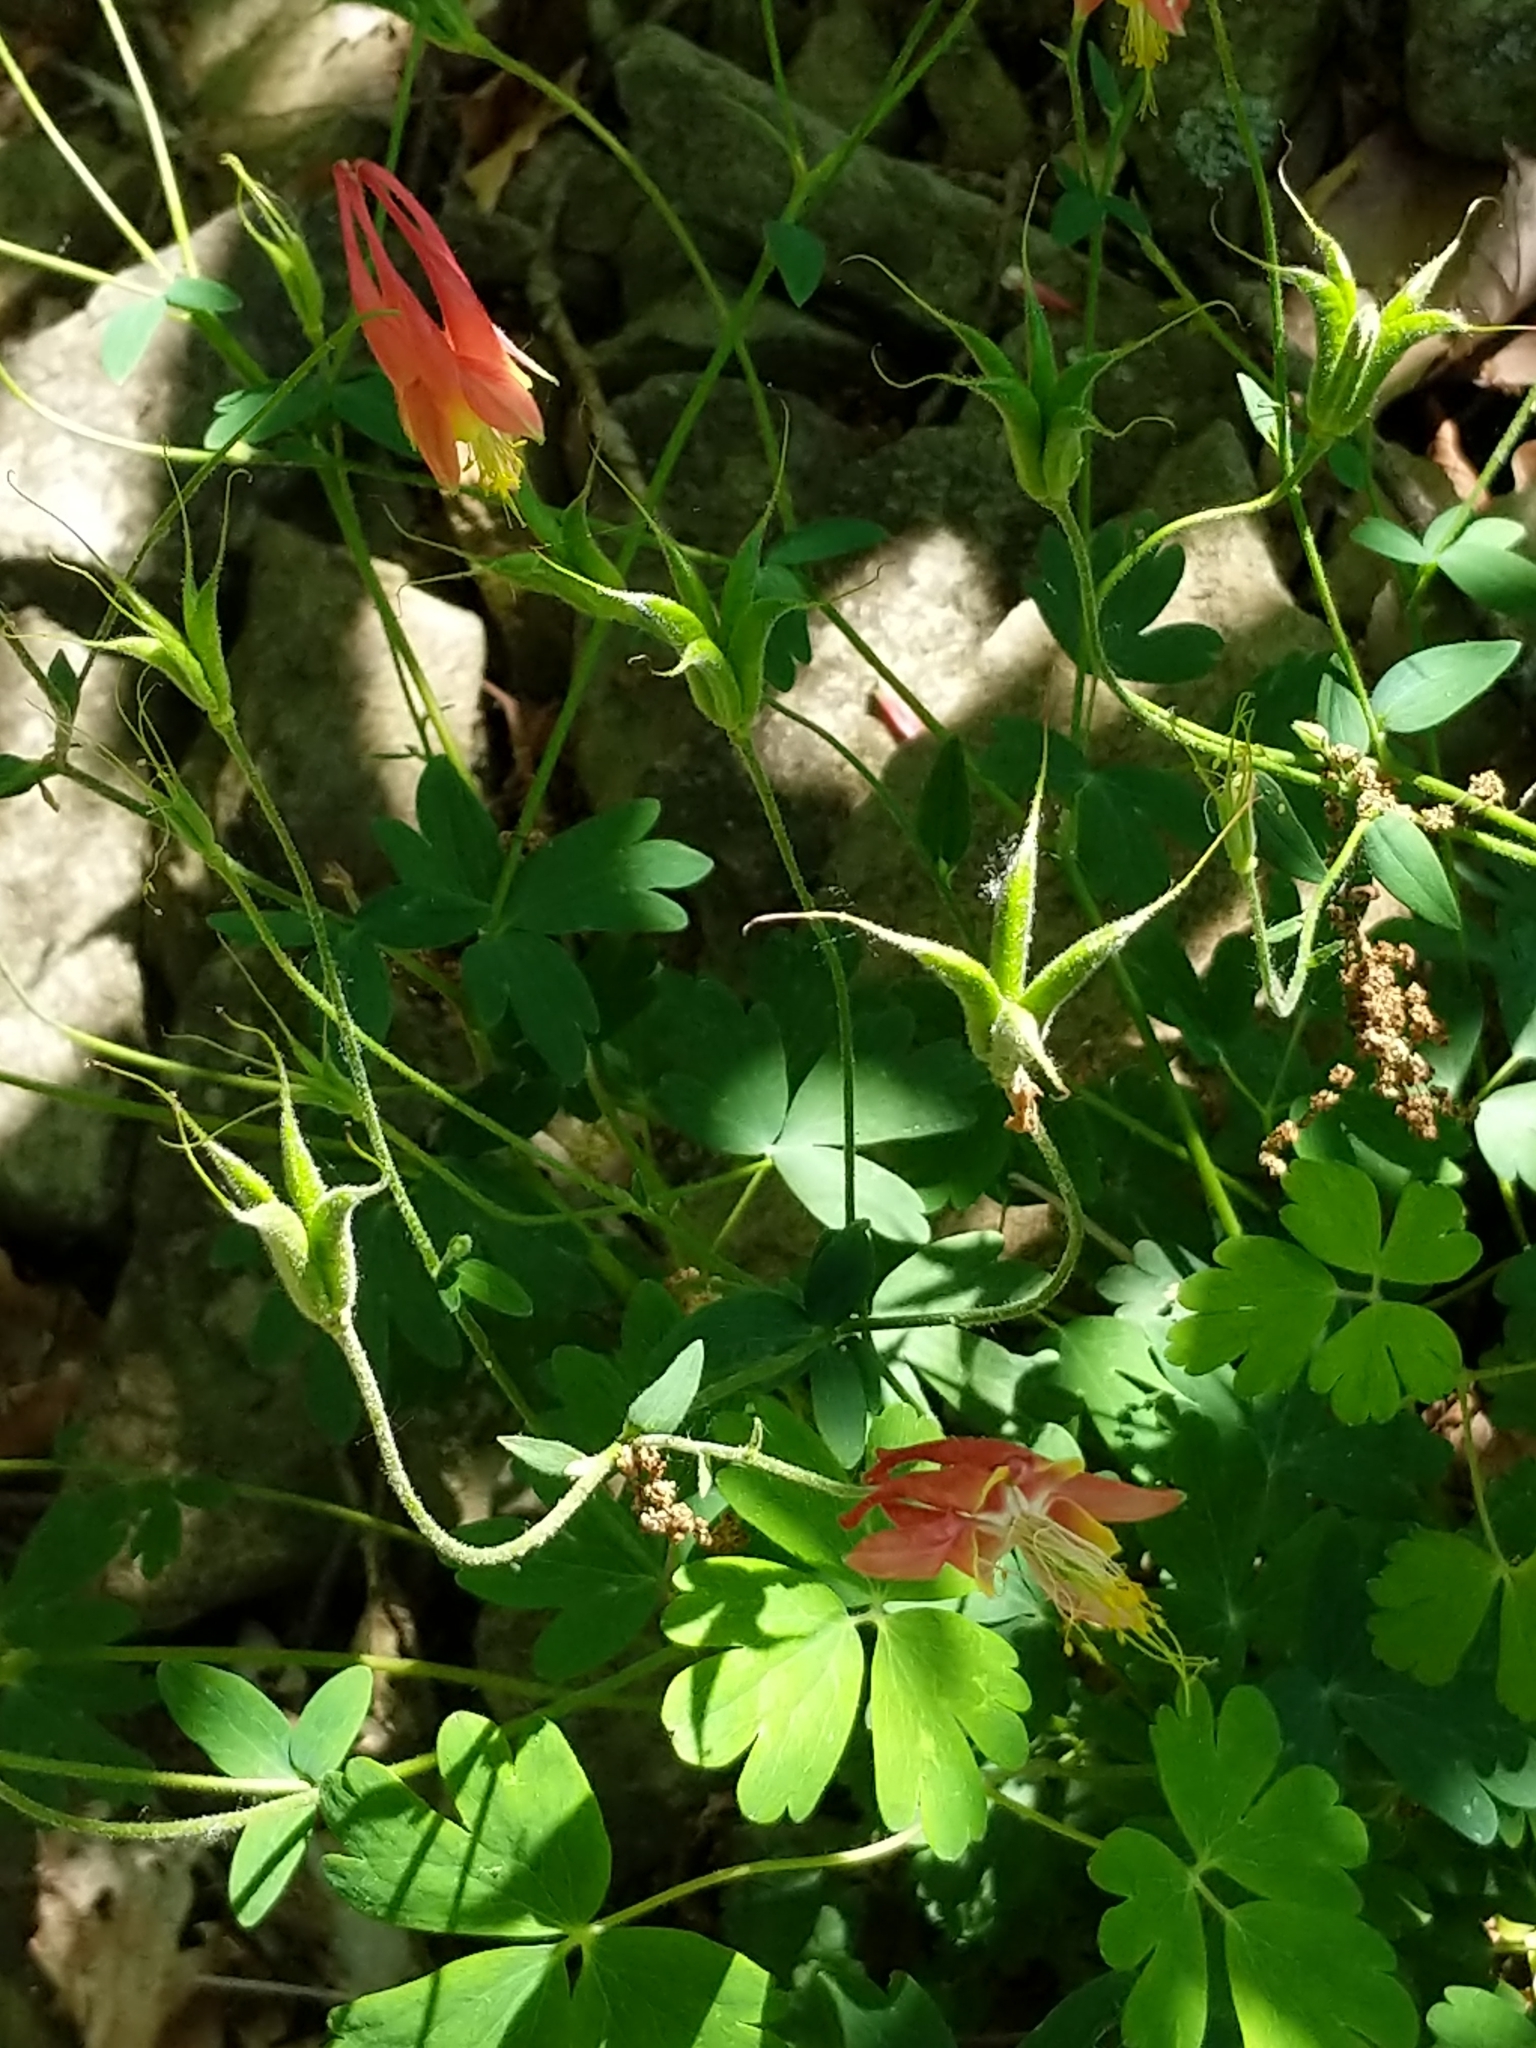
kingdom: Plantae
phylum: Tracheophyta
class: Magnoliopsida
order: Ranunculales
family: Ranunculaceae
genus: Aquilegia
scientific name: Aquilegia canadensis
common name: American columbine
